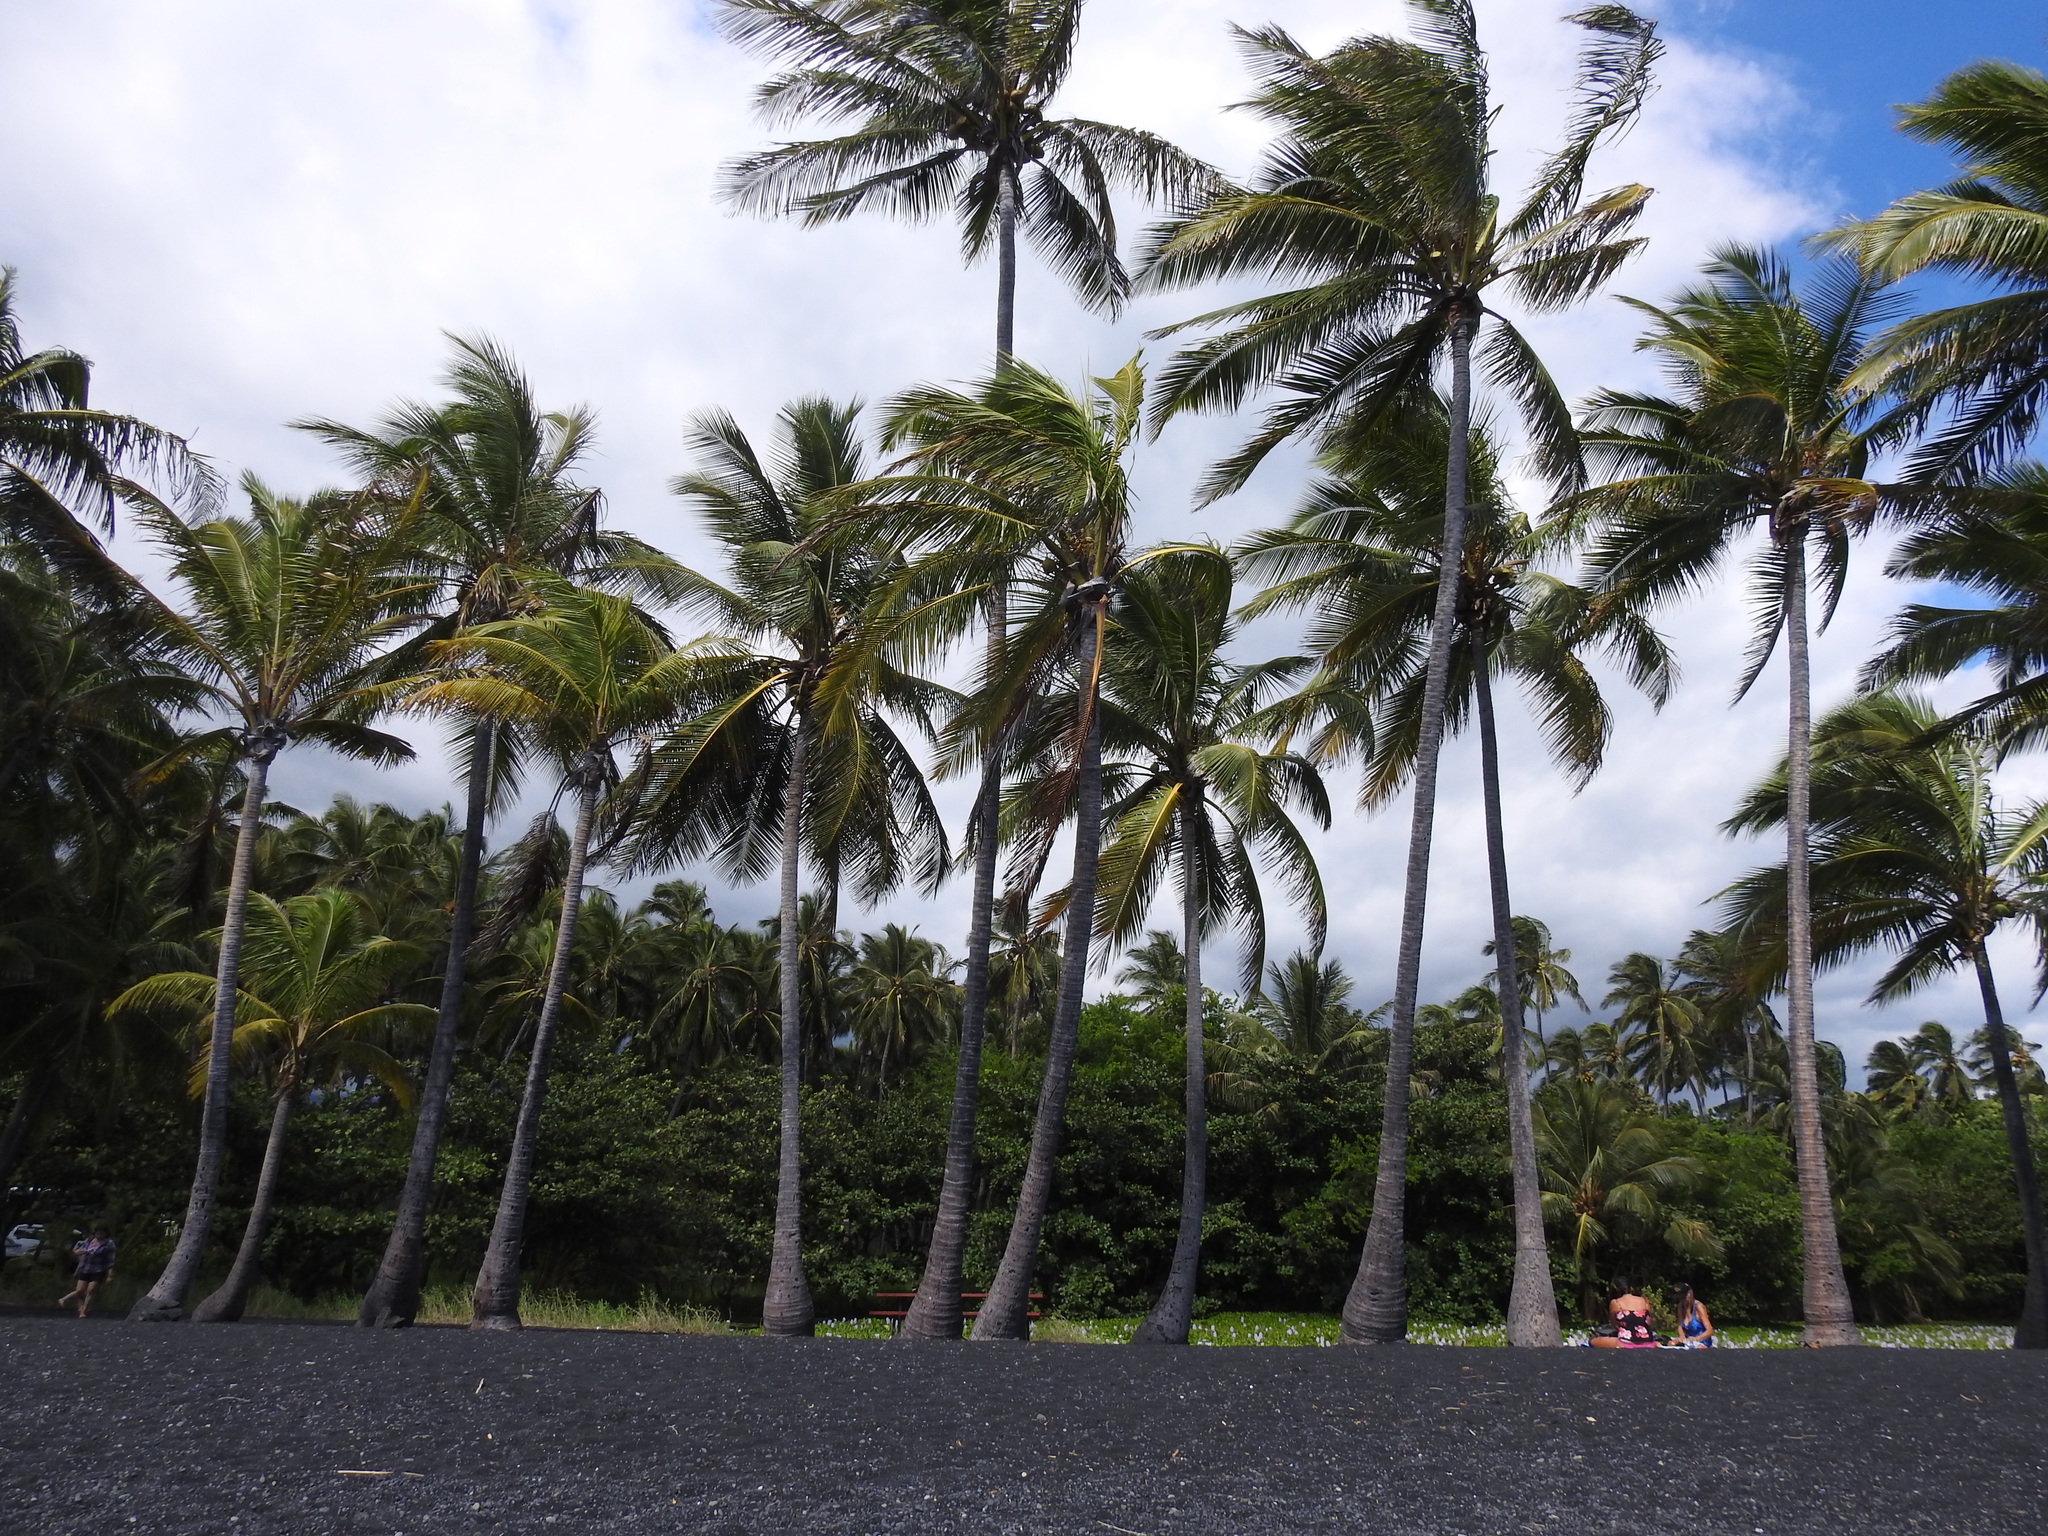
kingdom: Plantae
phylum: Tracheophyta
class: Liliopsida
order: Arecales
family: Arecaceae
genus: Cocos
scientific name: Cocos nucifera
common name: Coconut palm
